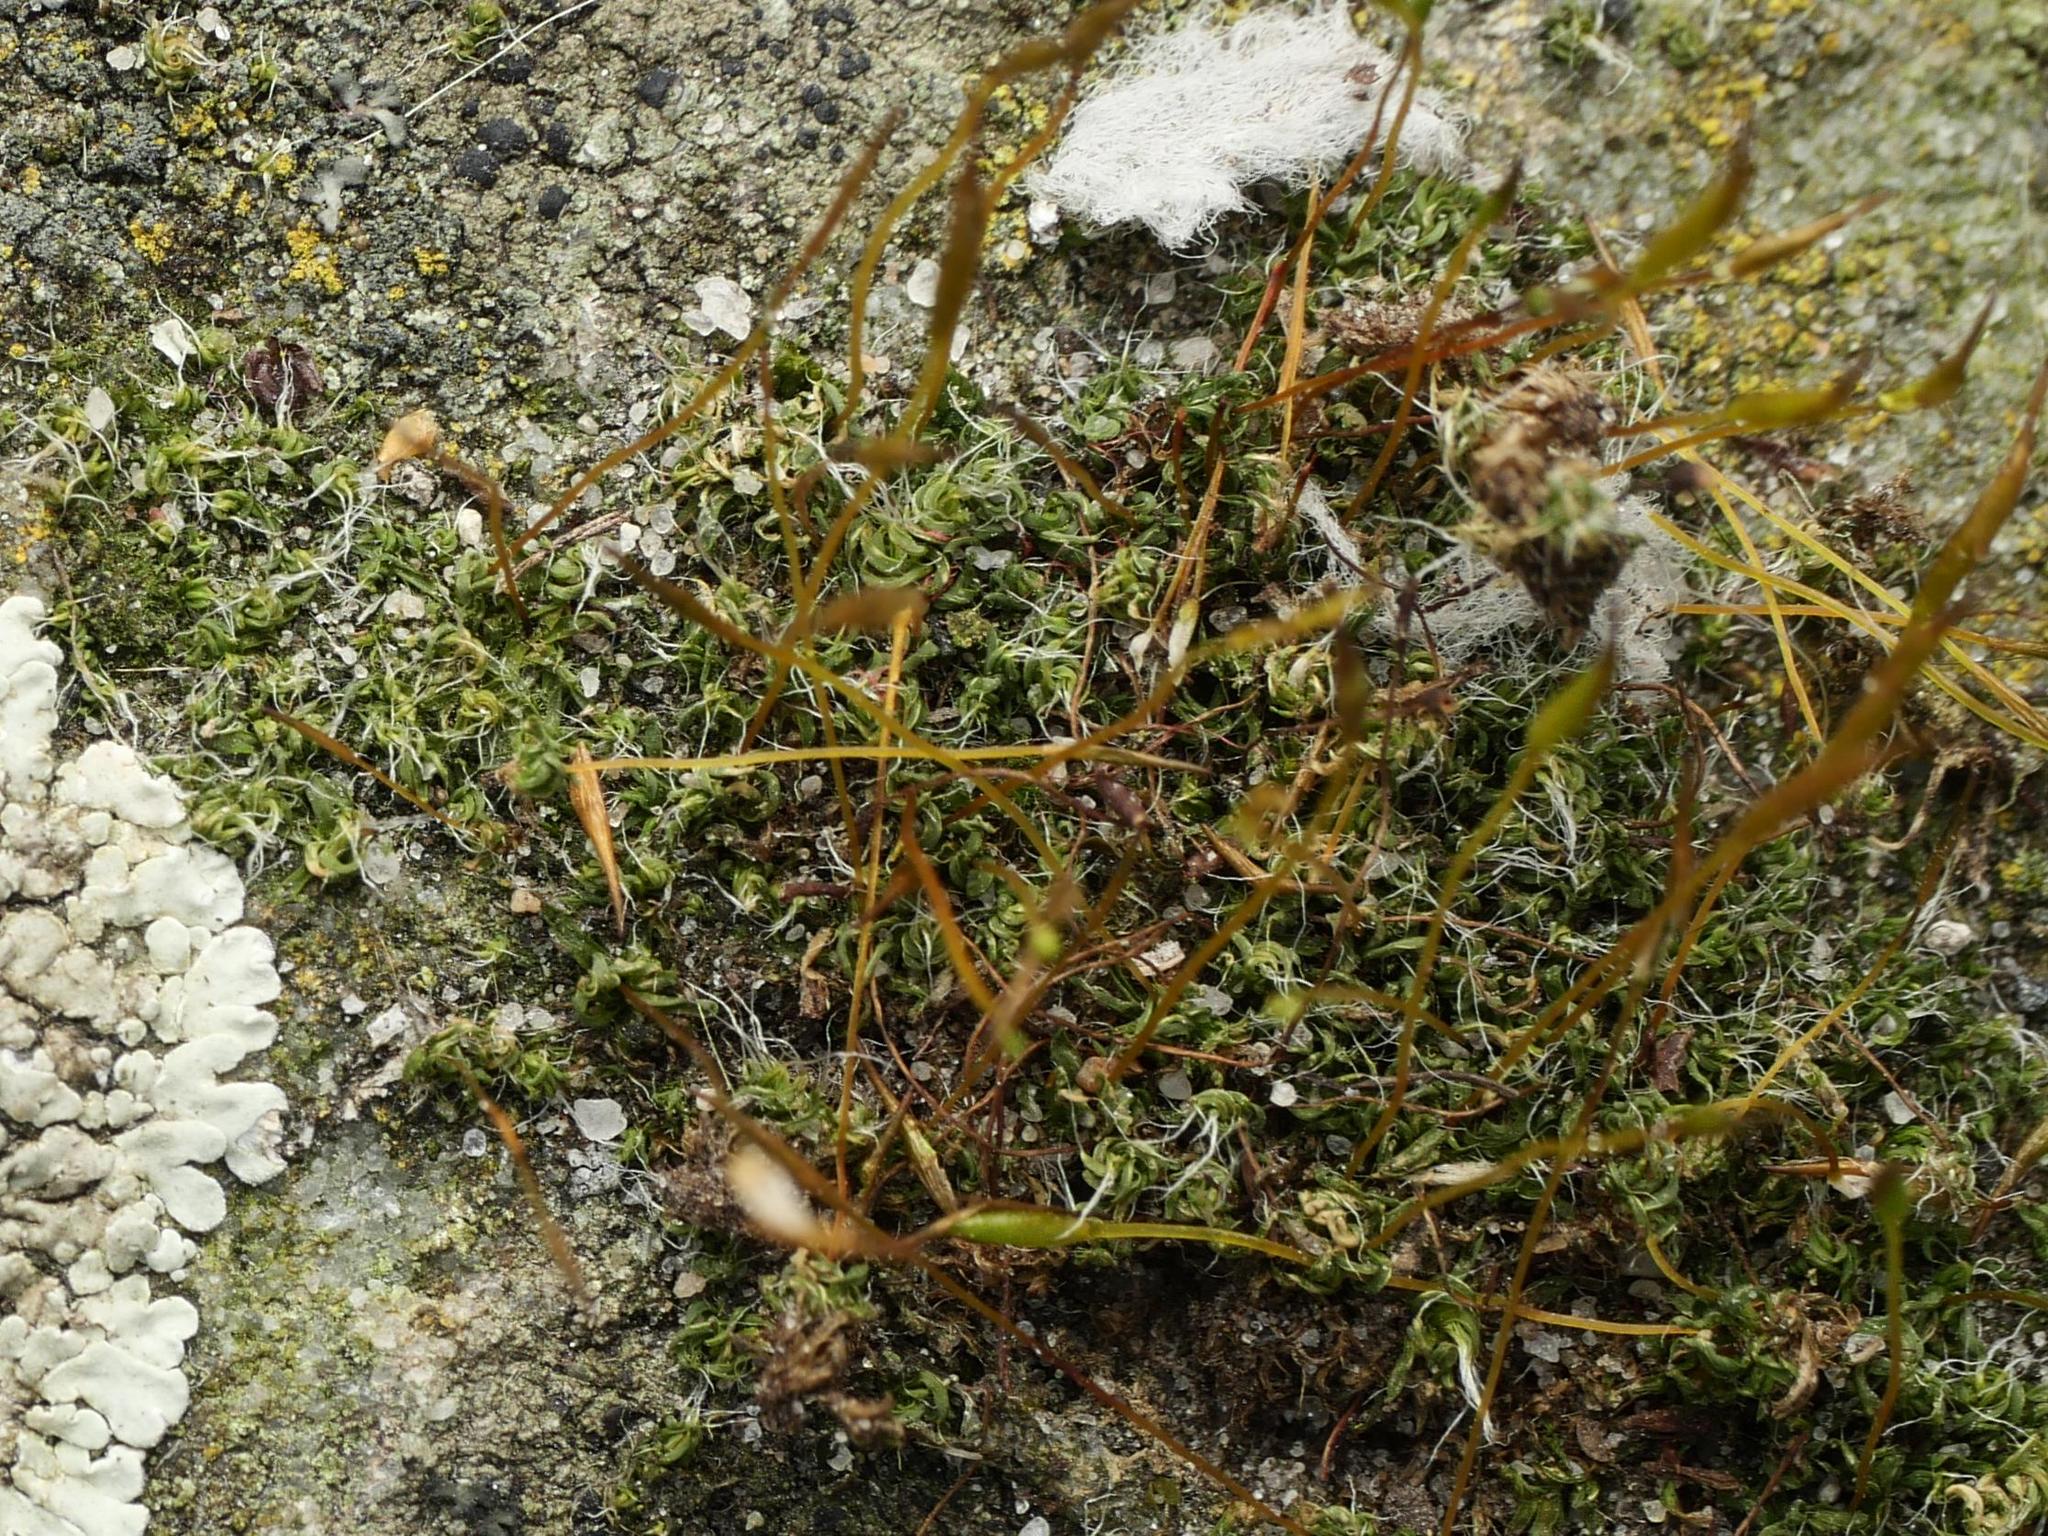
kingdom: Plantae
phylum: Bryophyta
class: Bryopsida
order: Pottiales
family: Pottiaceae
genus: Tortula
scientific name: Tortula muralis
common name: Wall screw-moss
